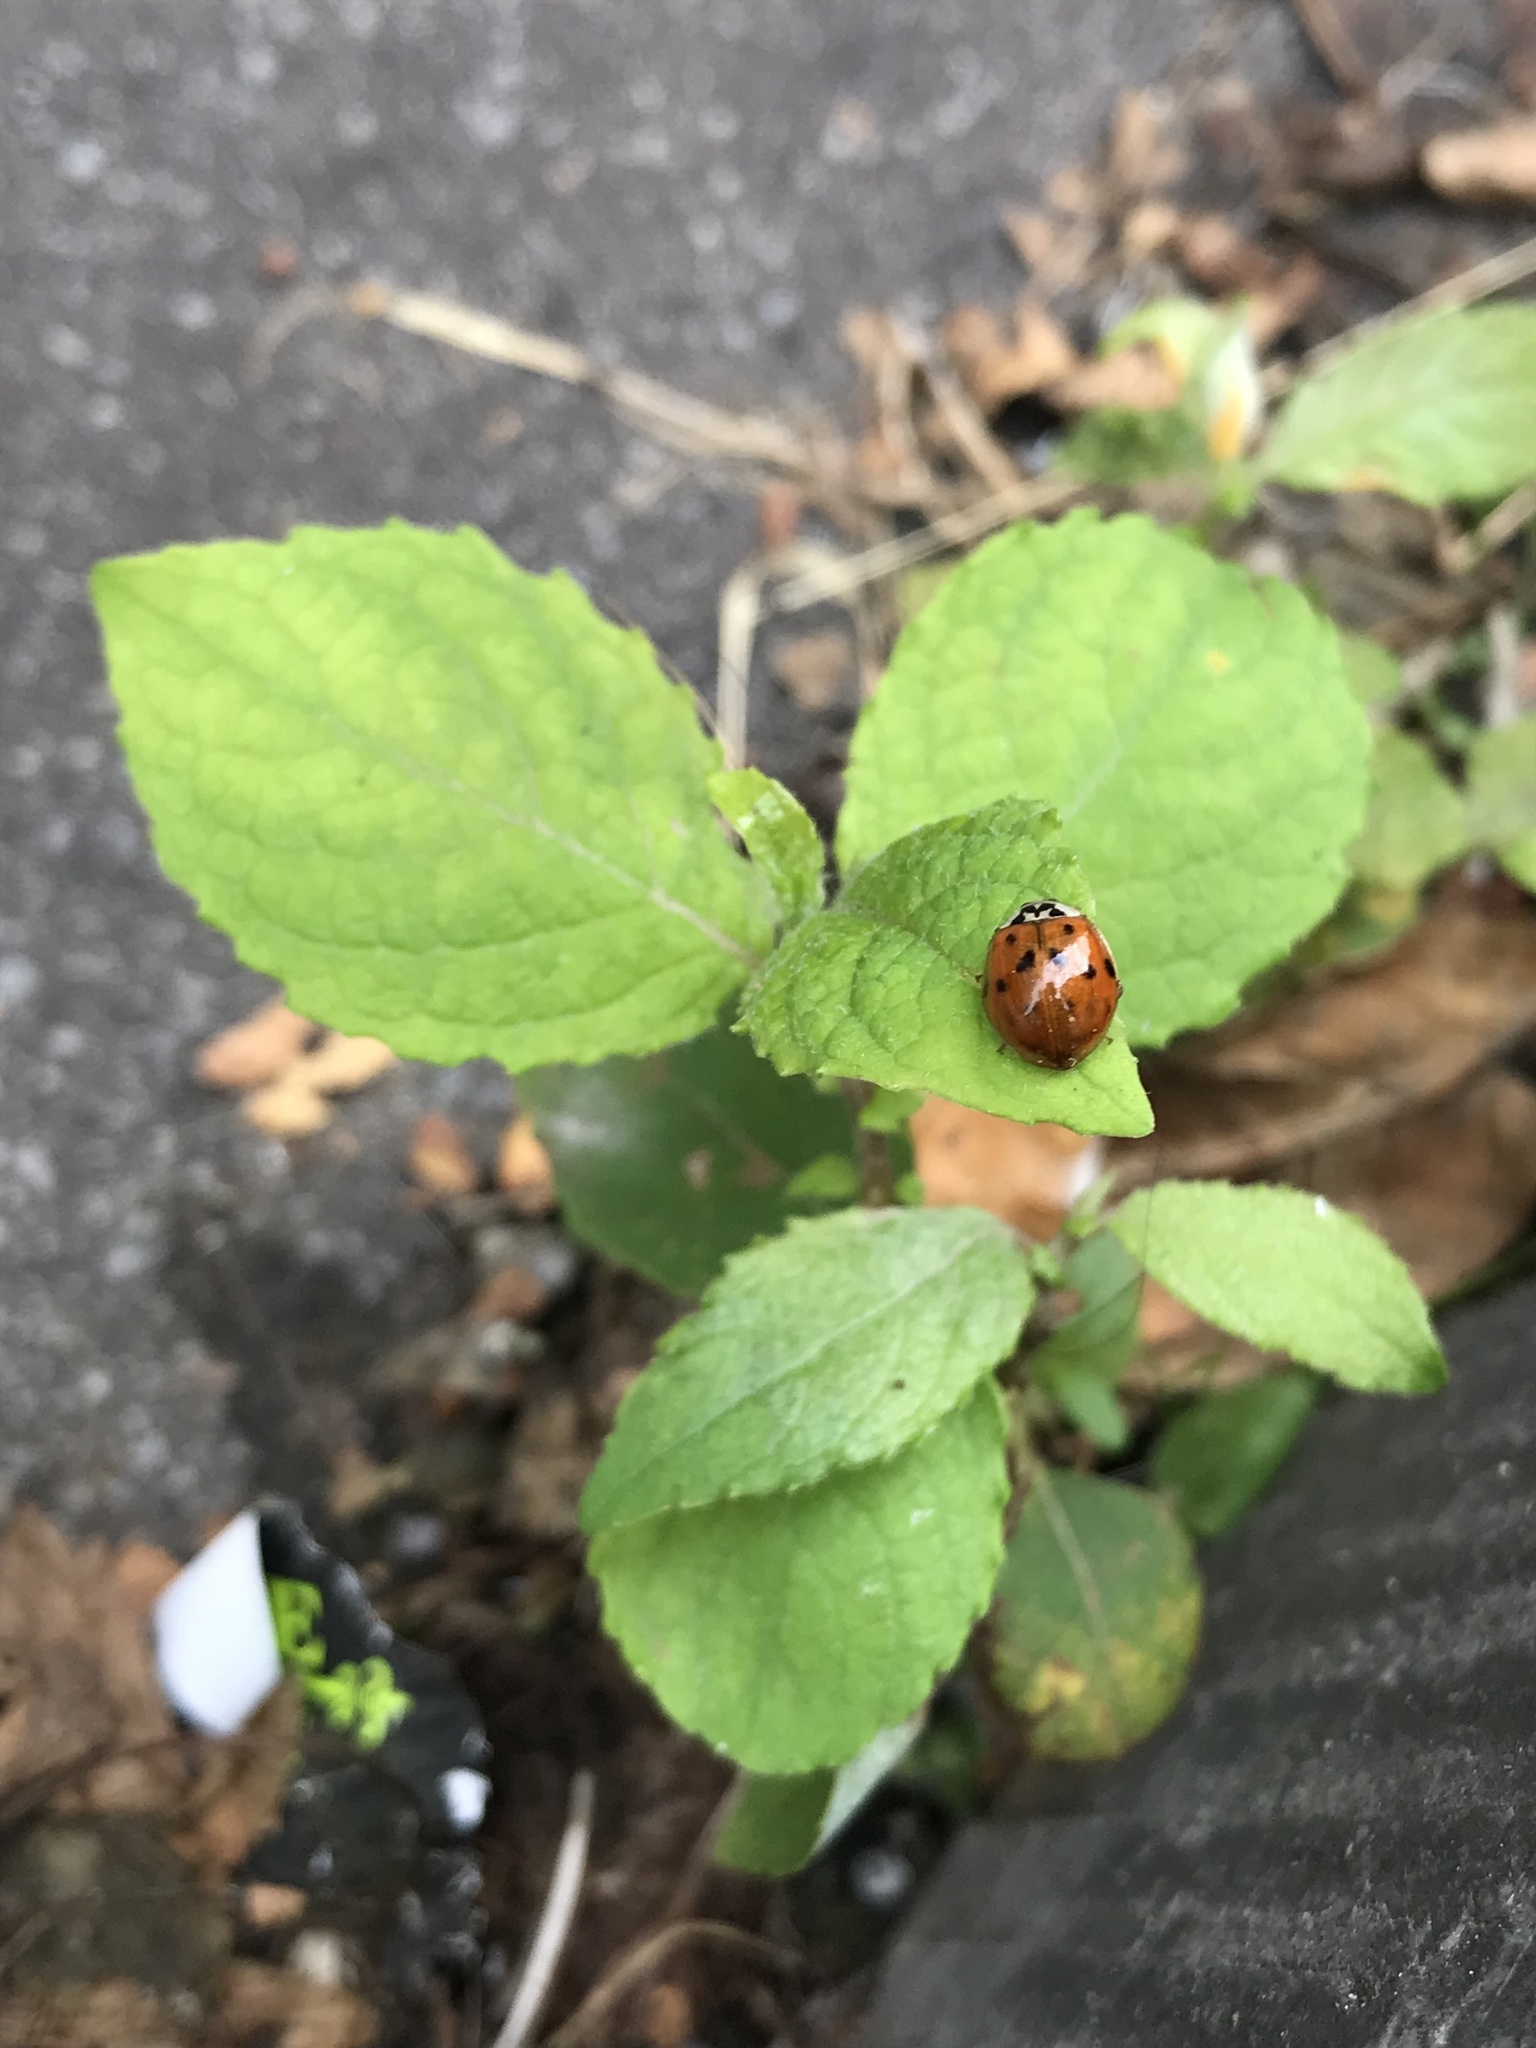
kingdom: Animalia
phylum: Arthropoda
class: Insecta
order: Coleoptera
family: Coccinellidae
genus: Harmonia
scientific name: Harmonia axyridis
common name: Harlequin ladybird
